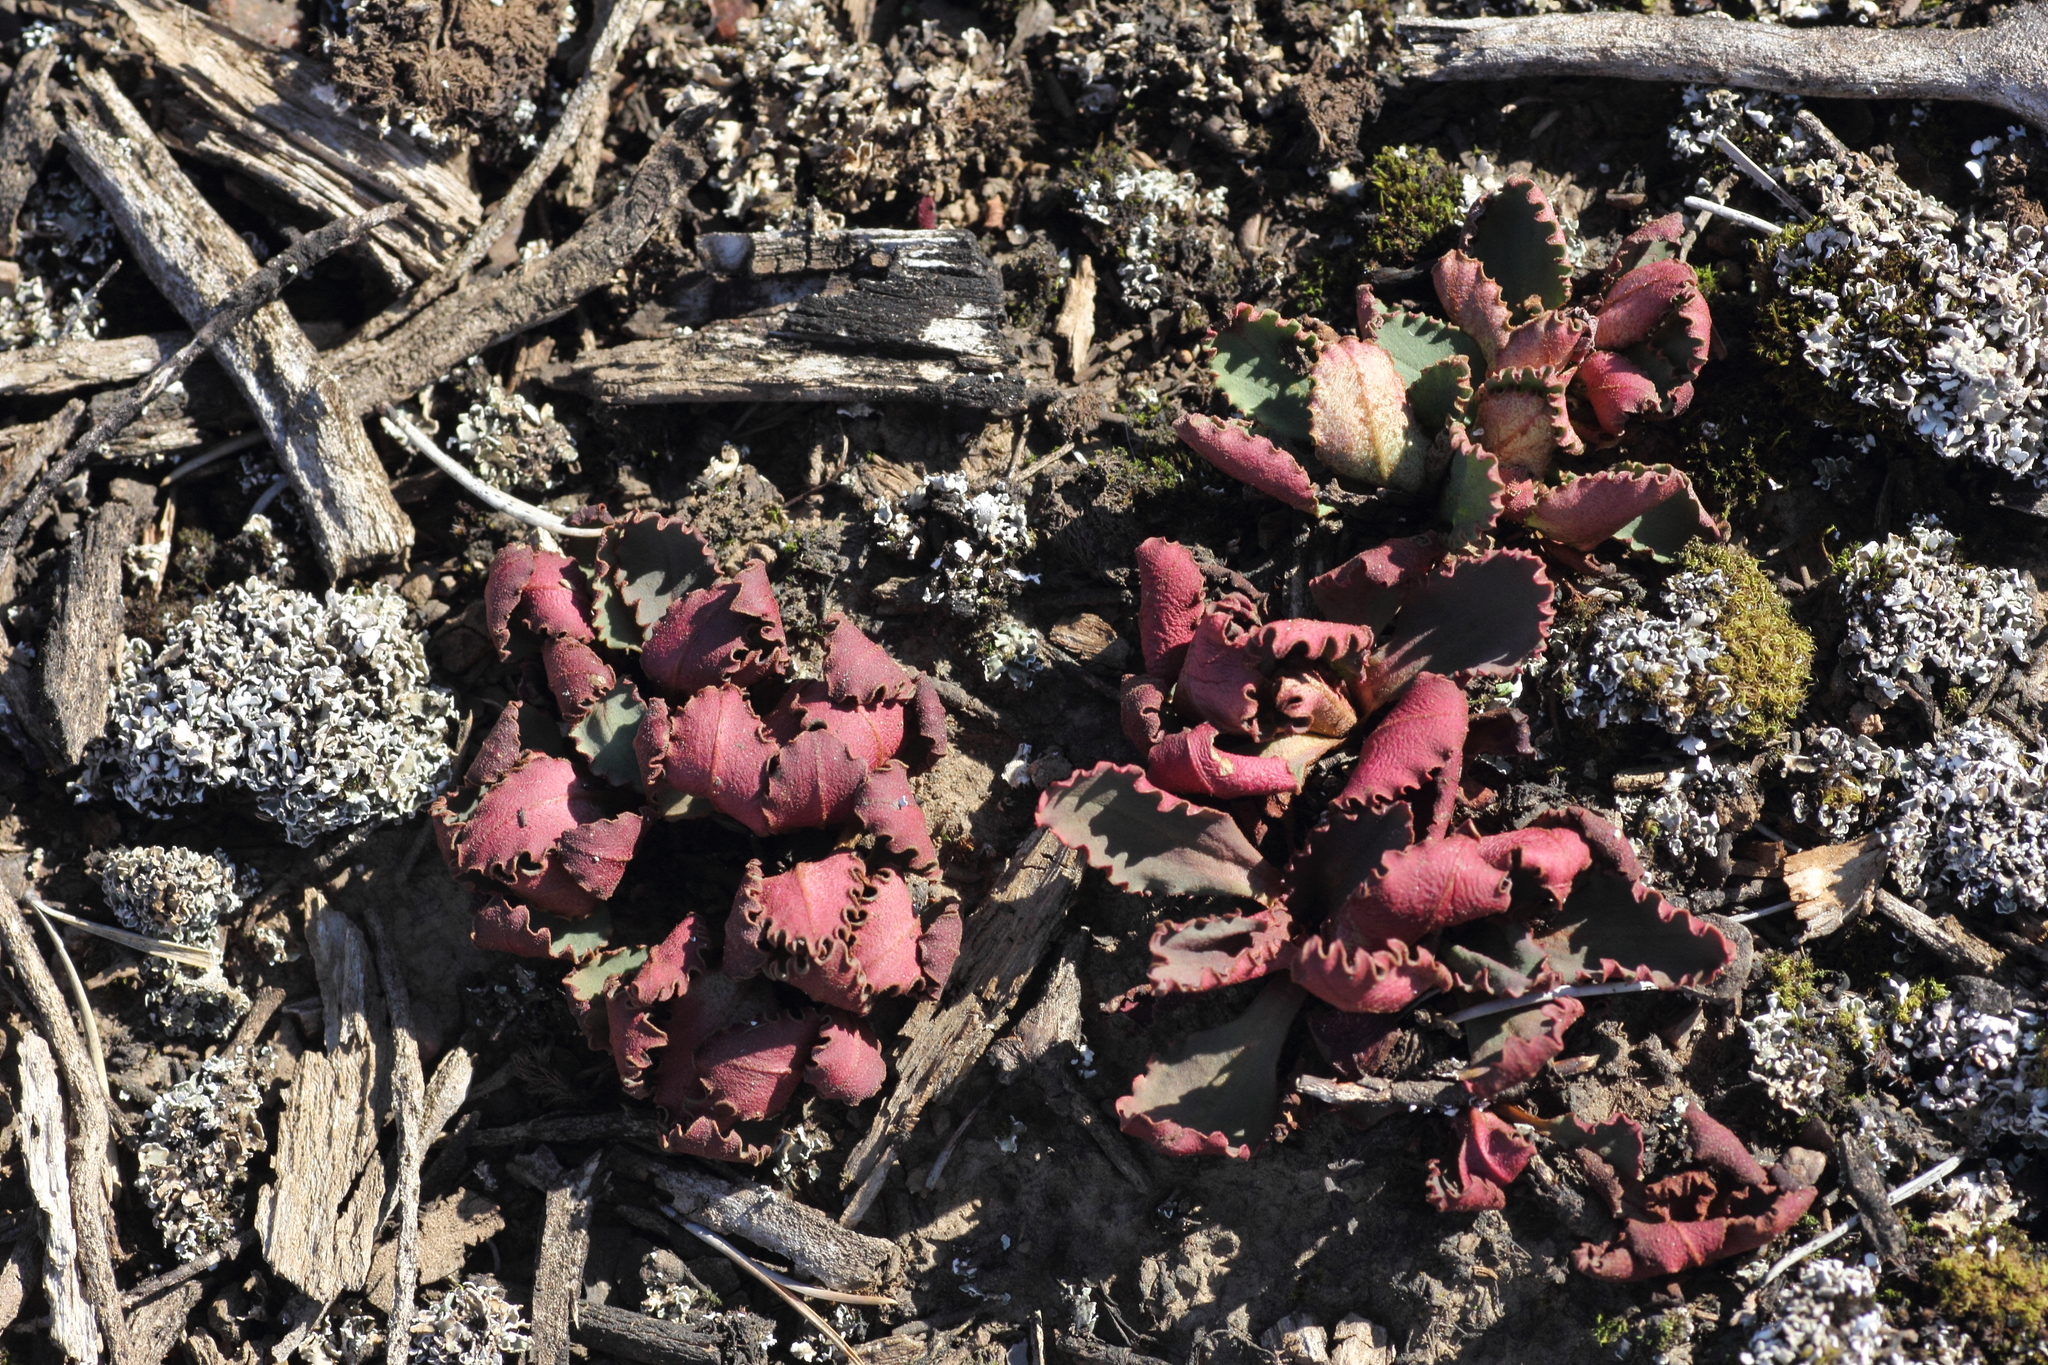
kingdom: Plantae
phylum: Tracheophyta
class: Magnoliopsida
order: Saxifragales
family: Saxifragaceae
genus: Micranthes
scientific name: Micranthes virginiensis
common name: Early saxifrage
